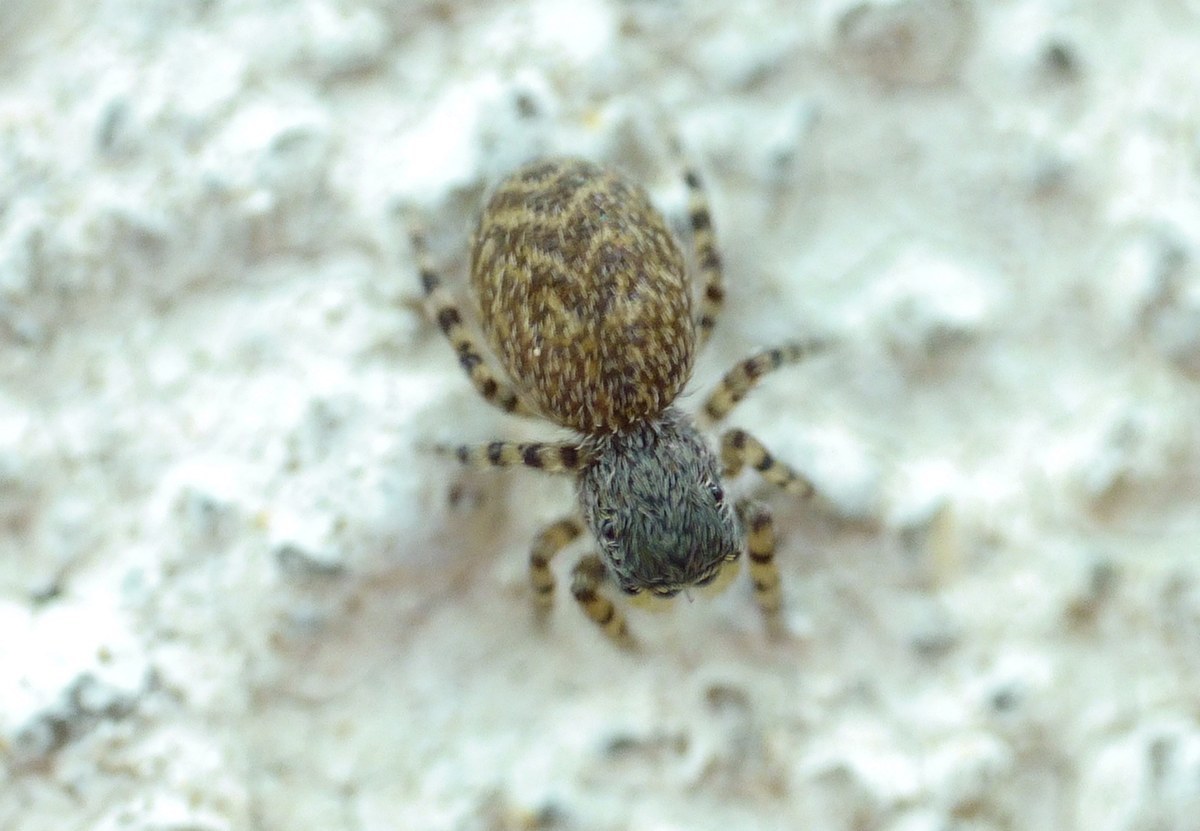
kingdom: Animalia
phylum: Arthropoda
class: Arachnida
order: Araneae
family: Salticidae
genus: Talavera
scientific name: Talavera aequipes
